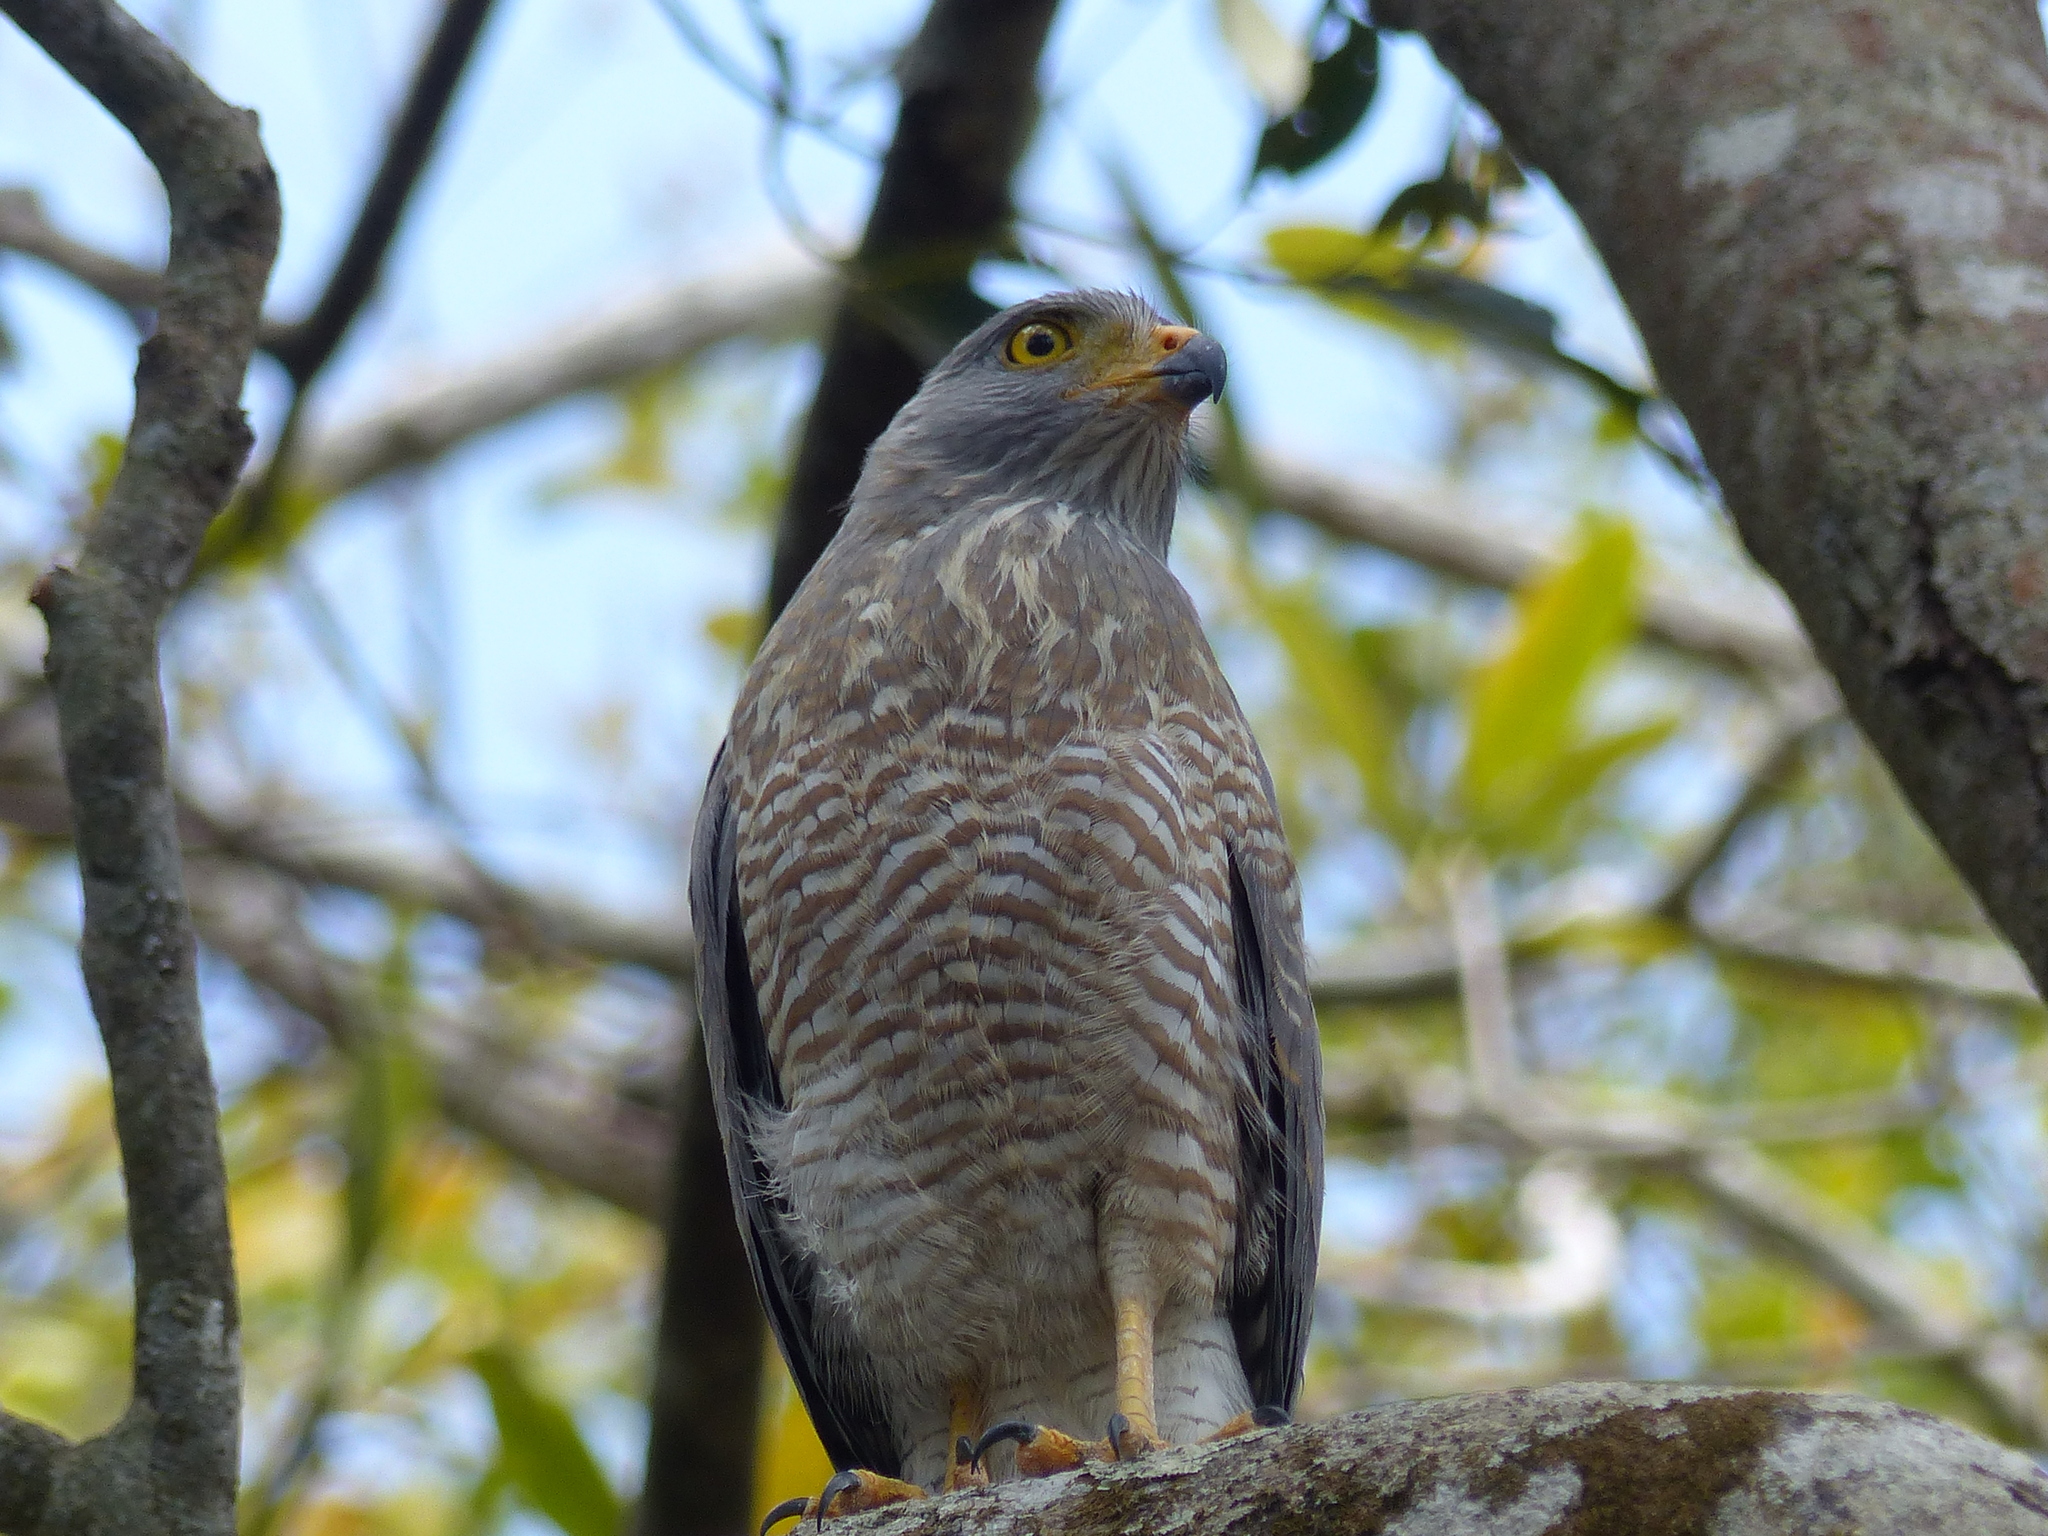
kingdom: Animalia
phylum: Chordata
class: Aves
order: Accipitriformes
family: Accipitridae
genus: Rupornis
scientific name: Rupornis magnirostris
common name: Roadside hawk
